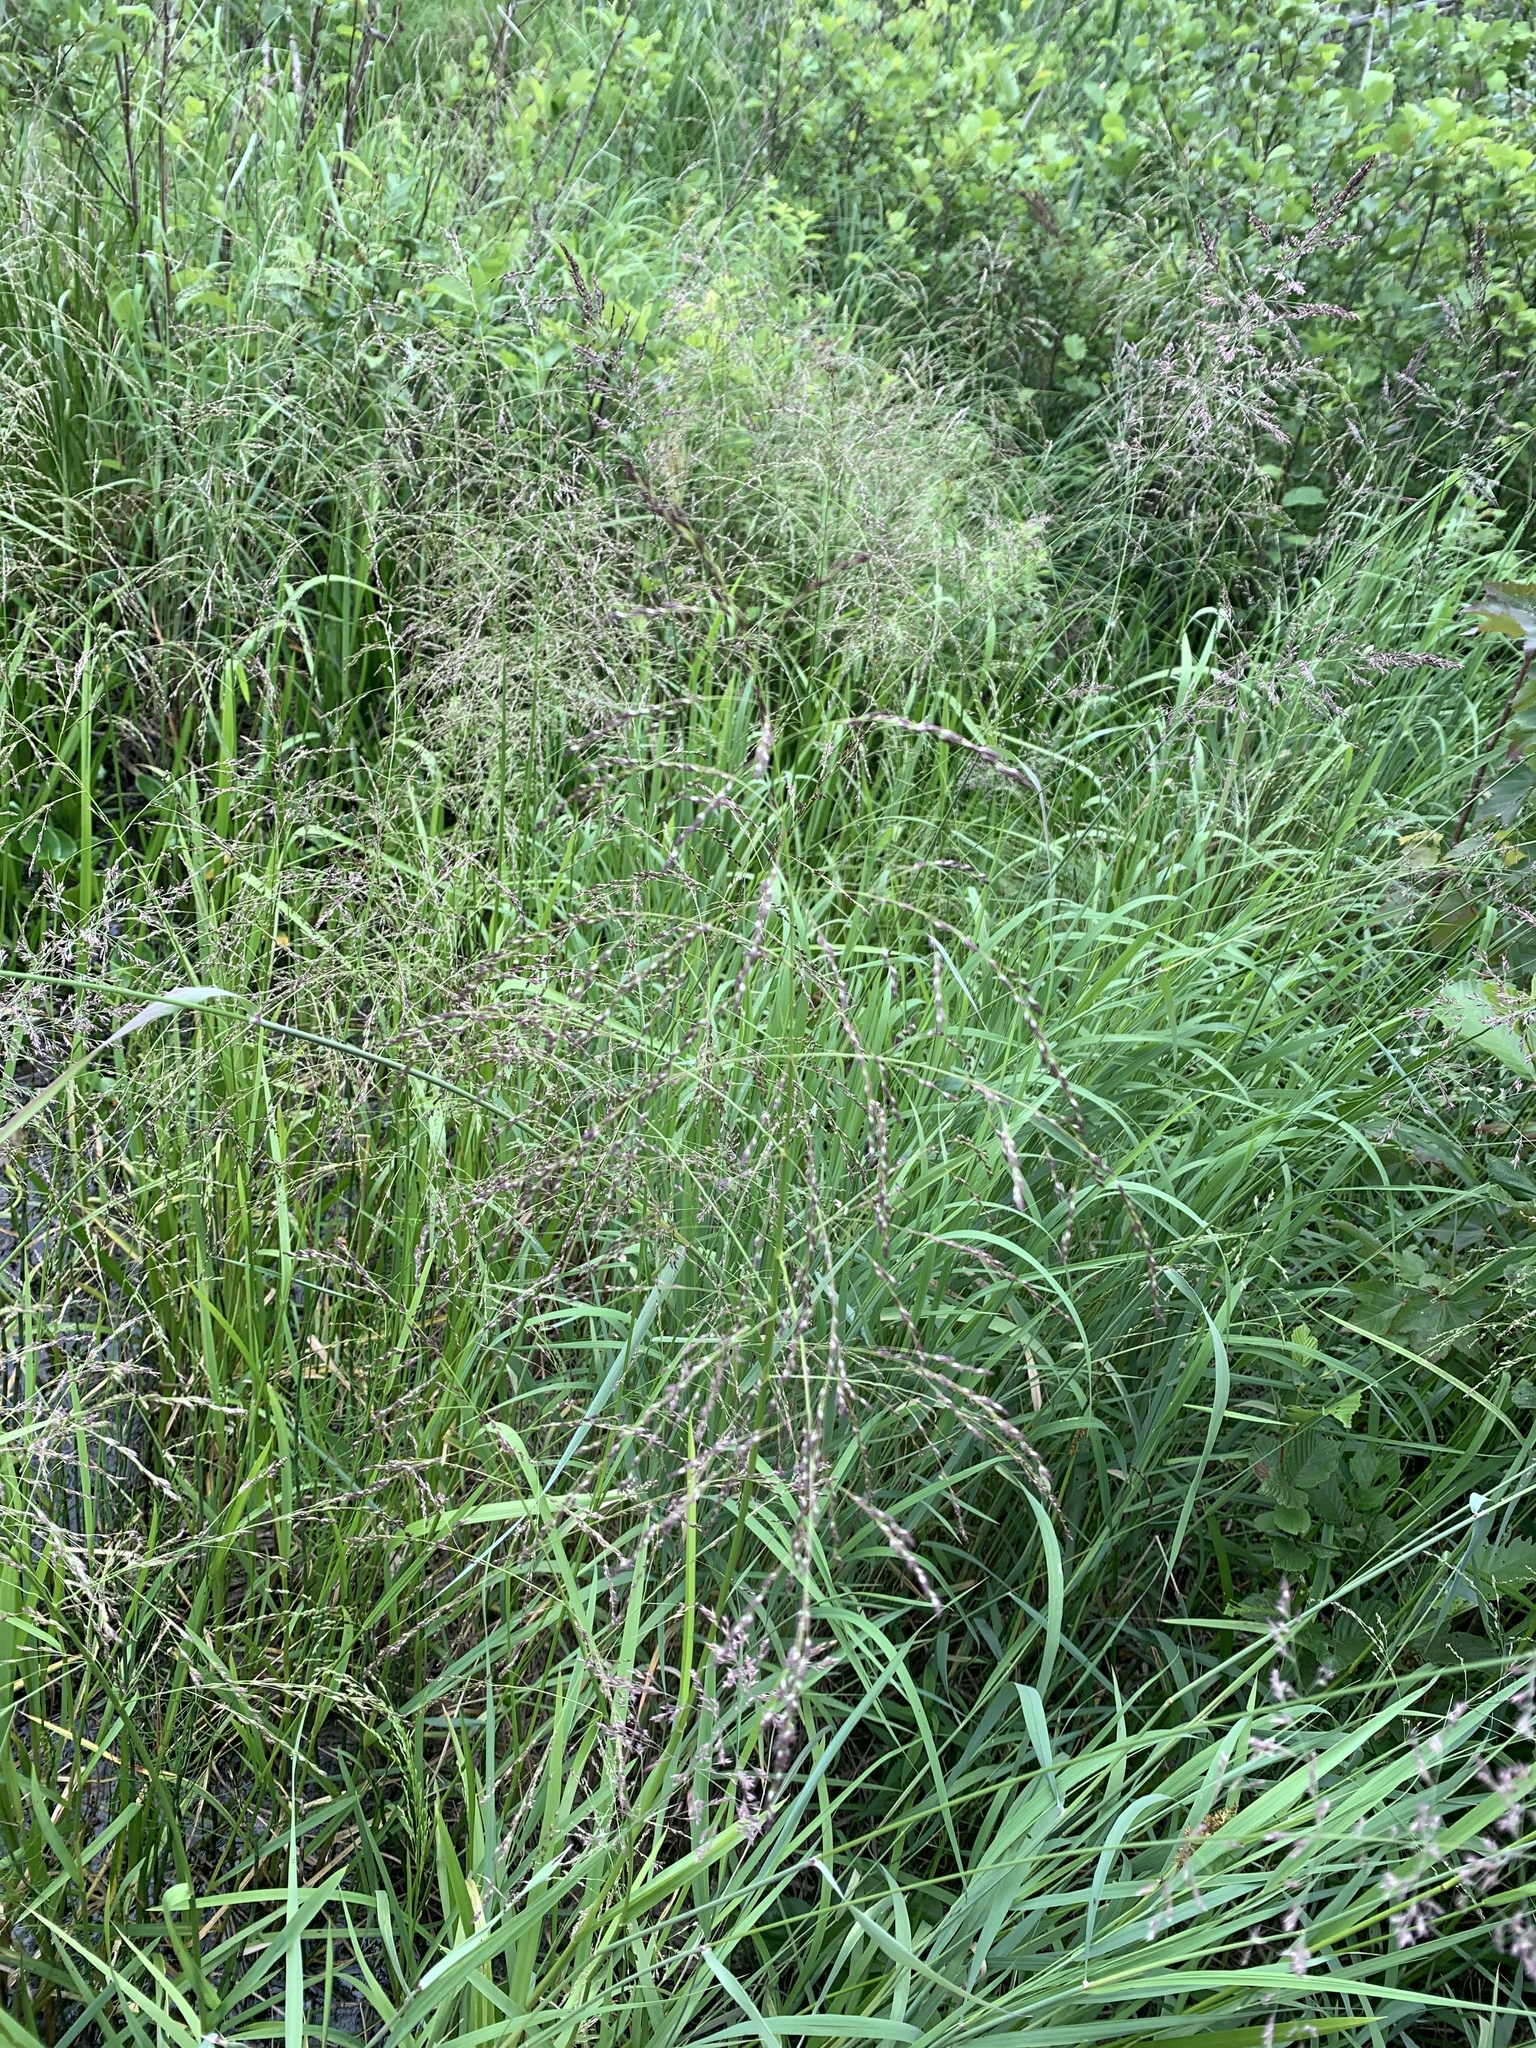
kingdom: Plantae
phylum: Tracheophyta
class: Liliopsida
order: Poales
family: Poaceae
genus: Glyceria
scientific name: Glyceria grandis
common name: American glyceria
